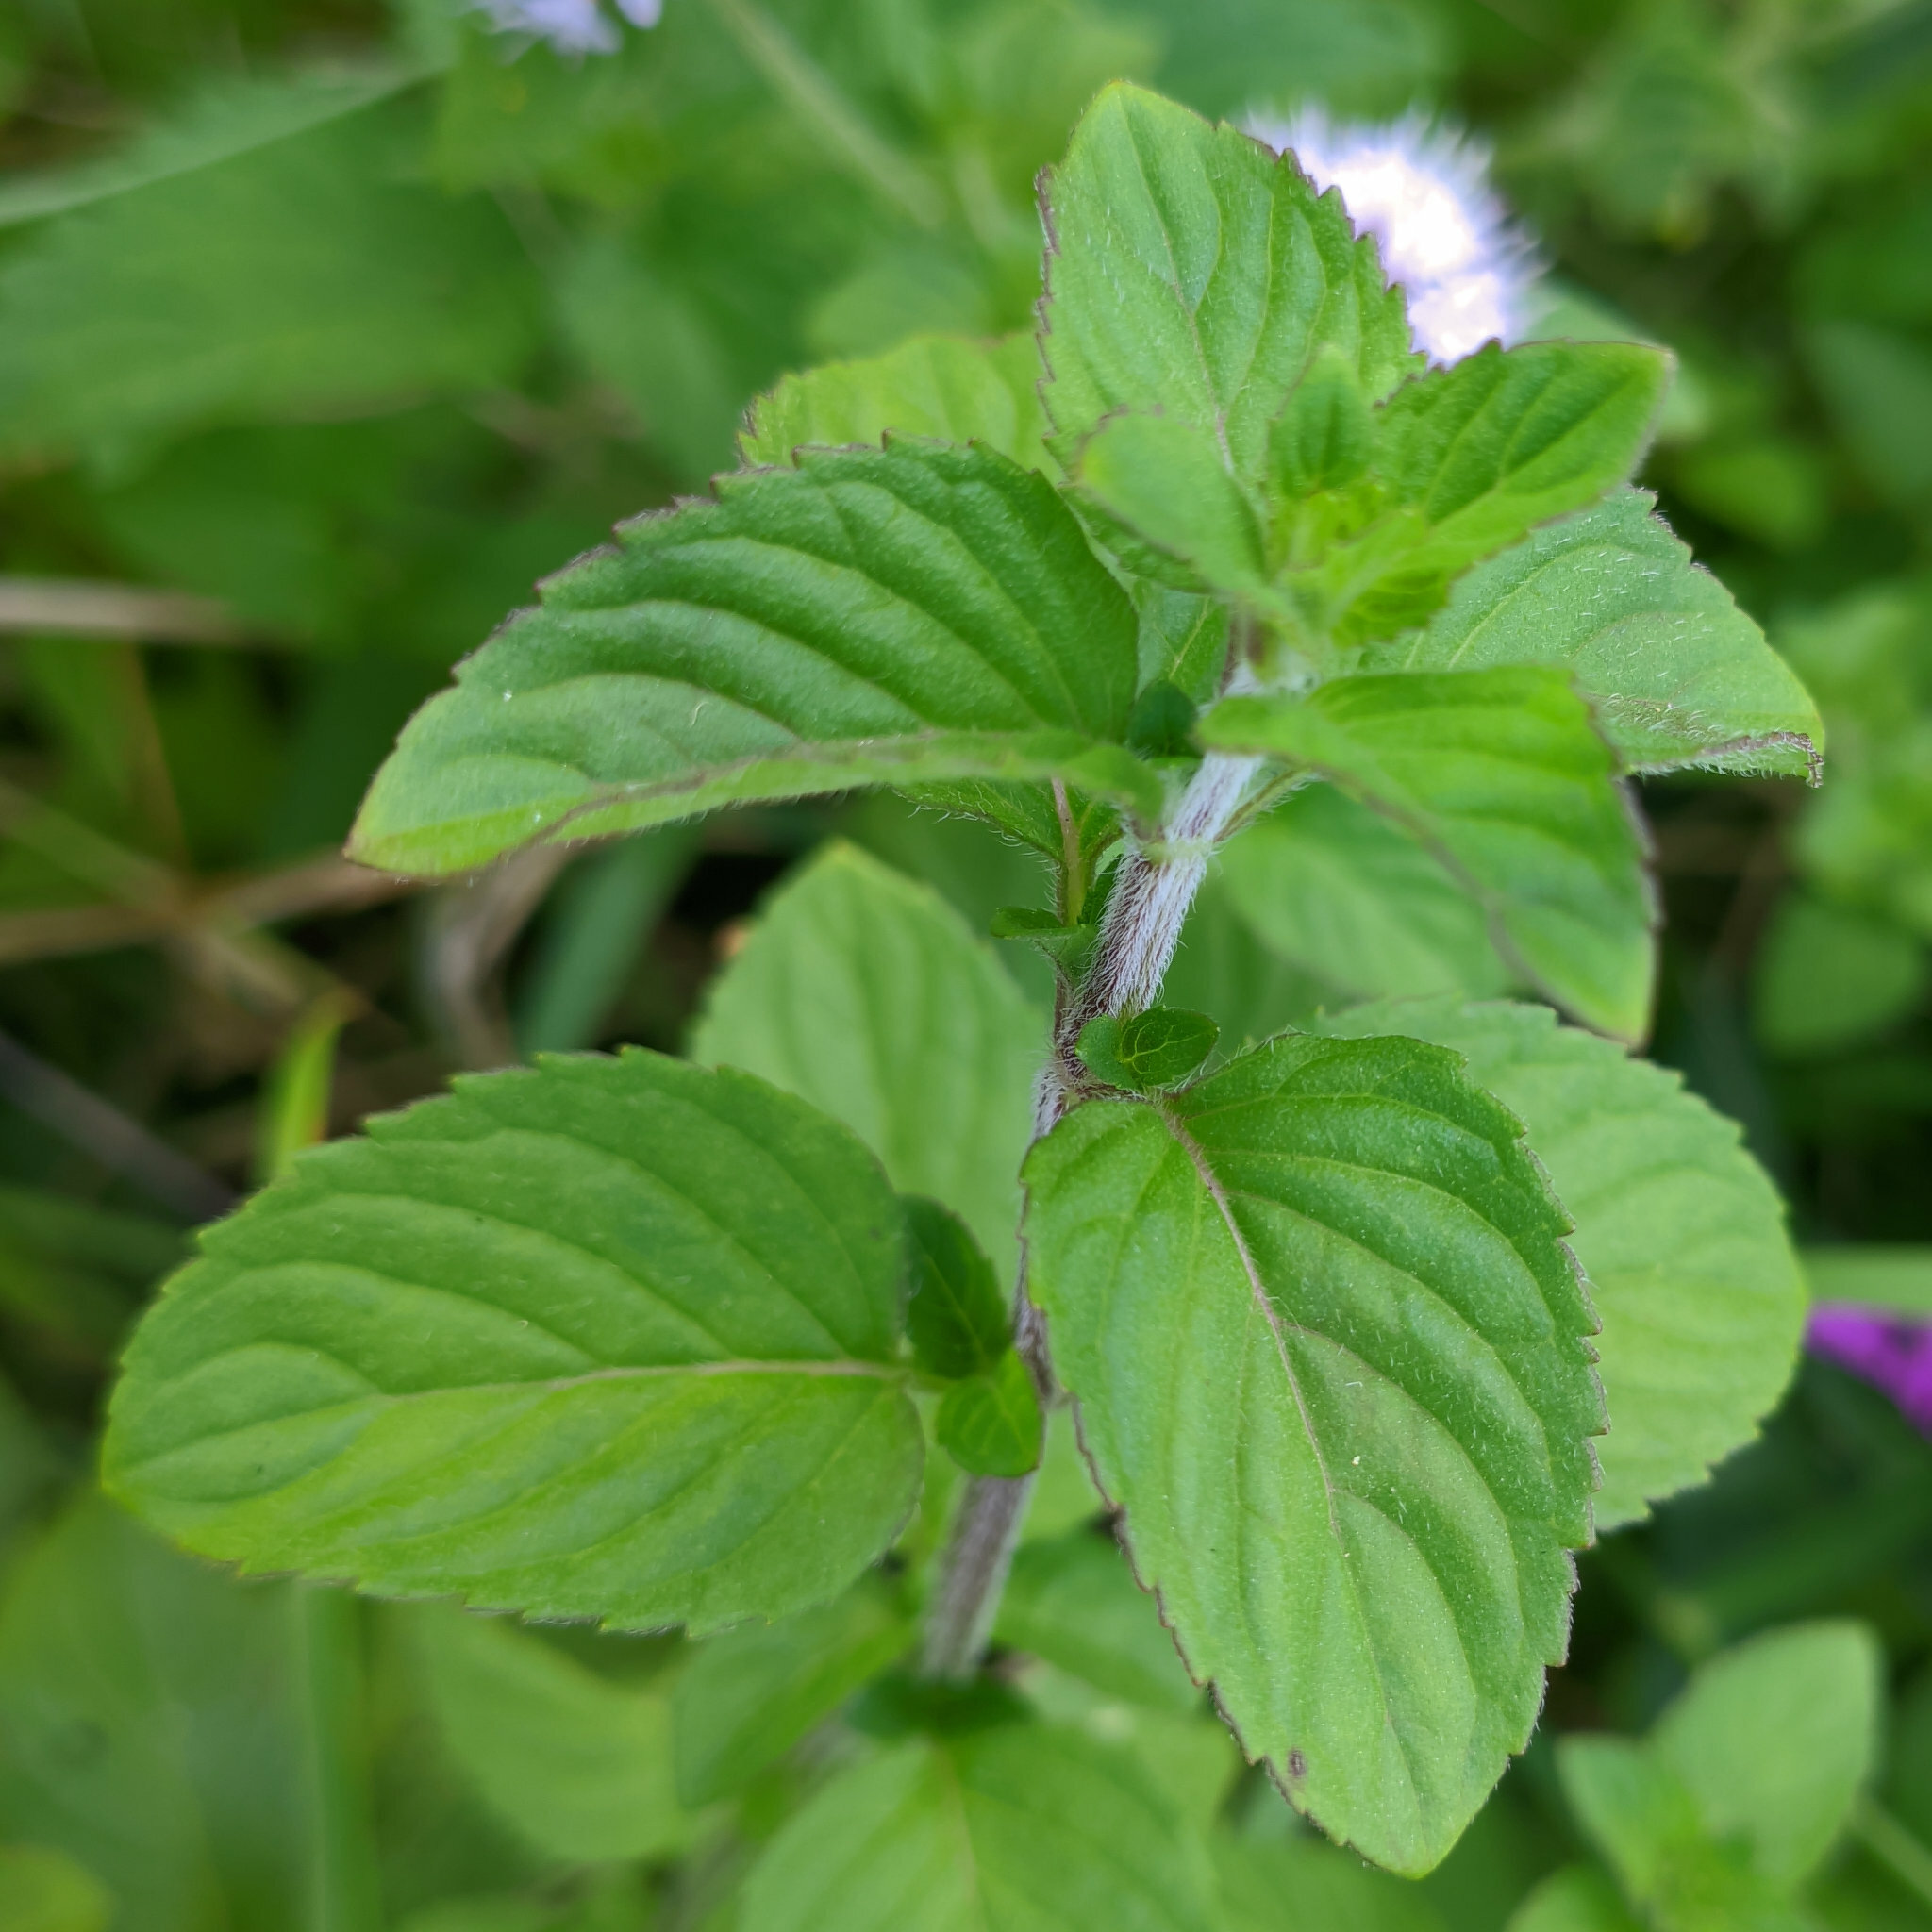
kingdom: Plantae
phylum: Tracheophyta
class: Magnoliopsida
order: Lamiales
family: Lamiaceae
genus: Mentha
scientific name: Mentha aquatica
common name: Water mint
